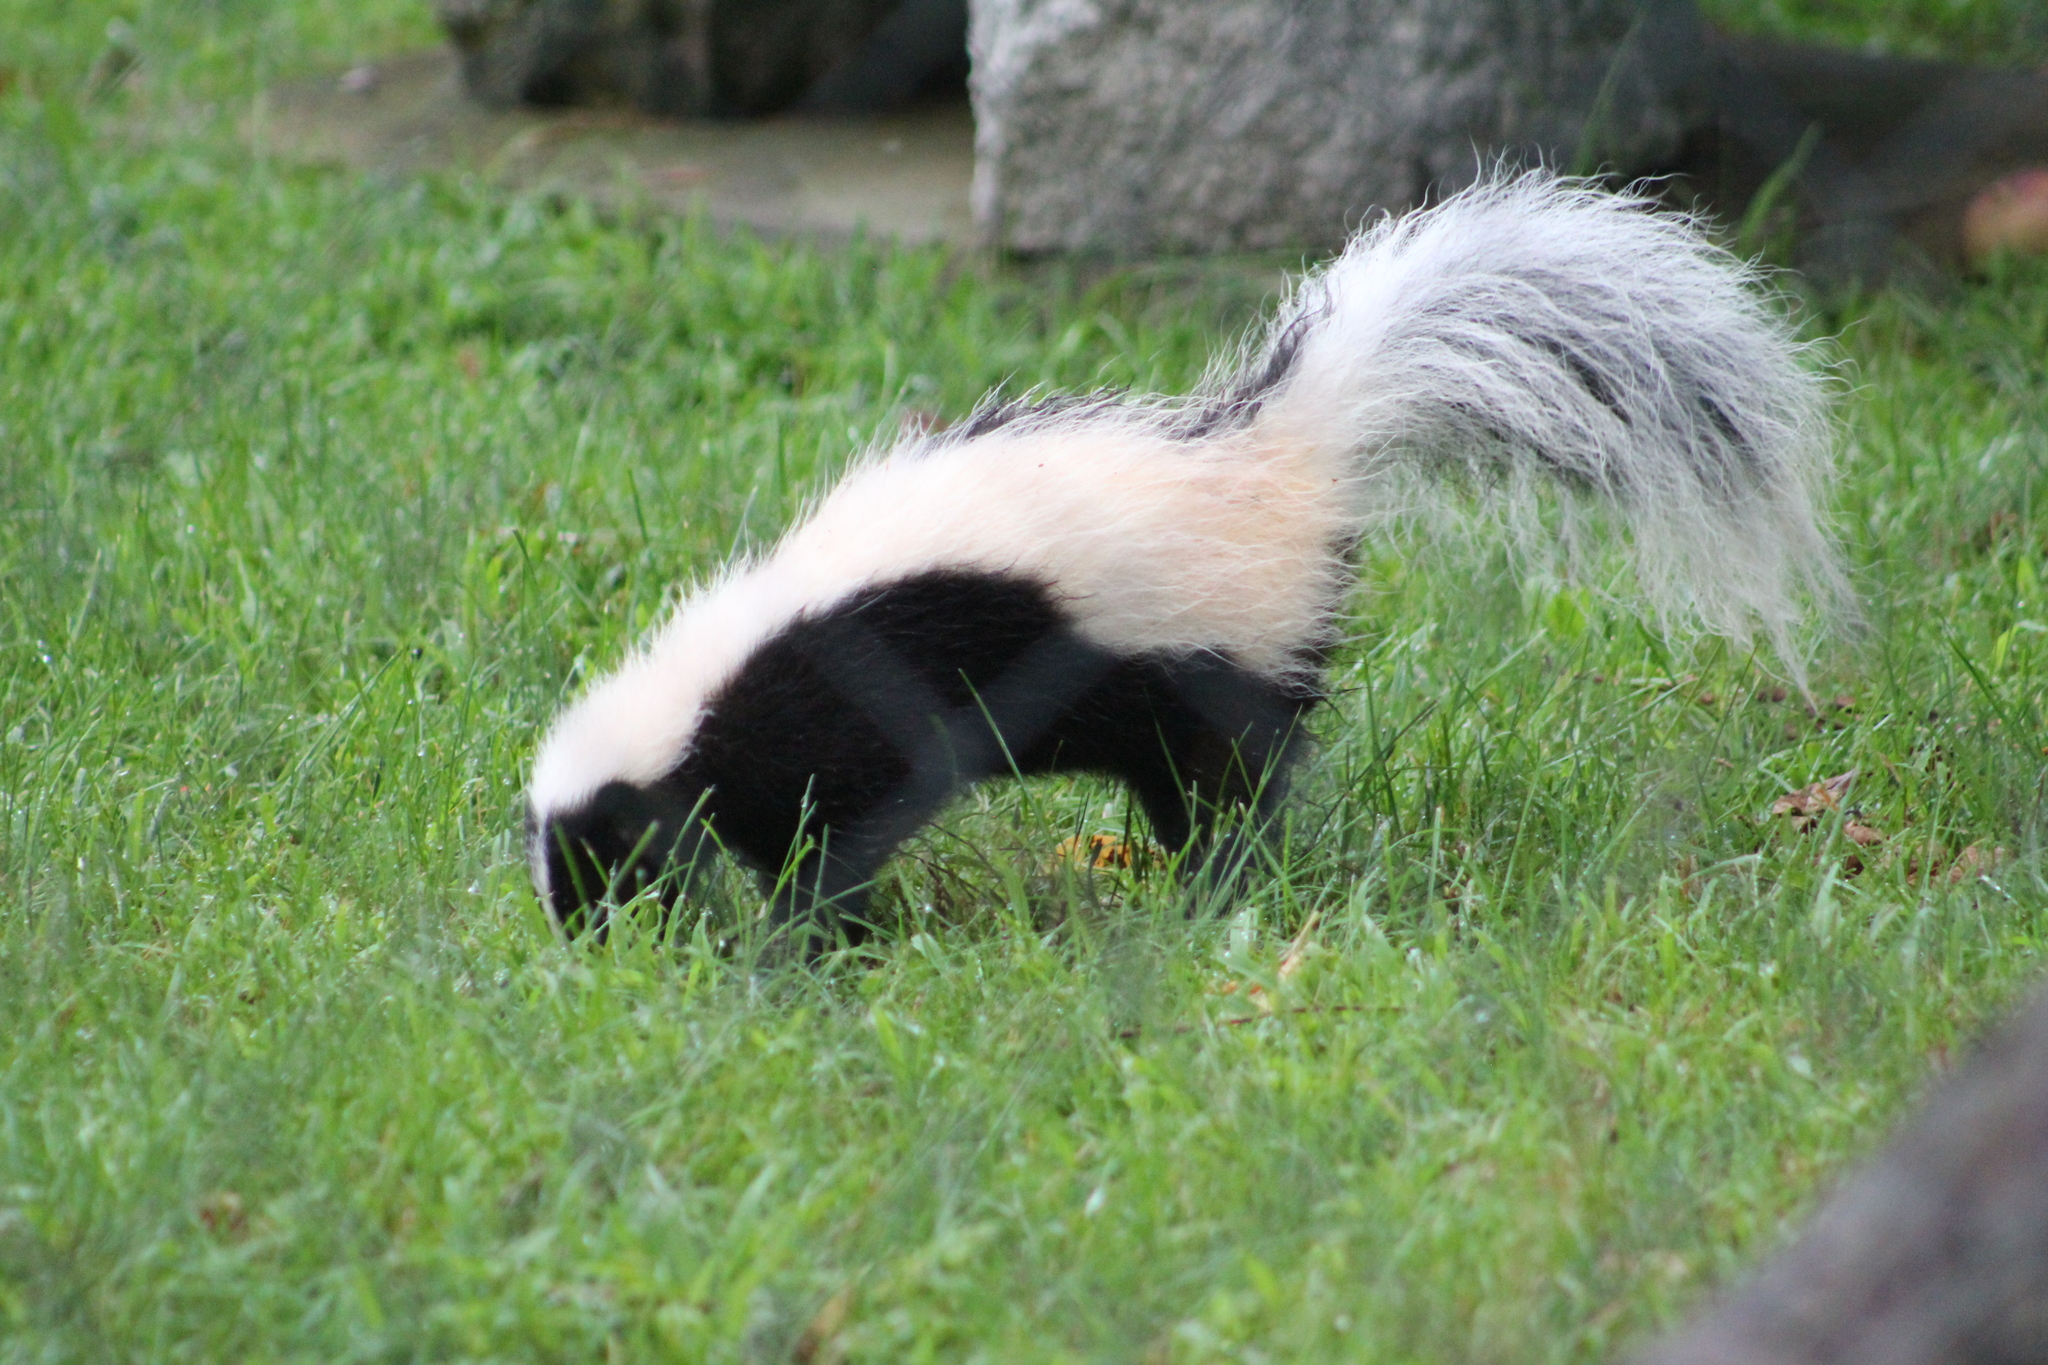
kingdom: Animalia
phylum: Chordata
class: Mammalia
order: Carnivora
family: Mephitidae
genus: Mephitis
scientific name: Mephitis mephitis
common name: Striped skunk
